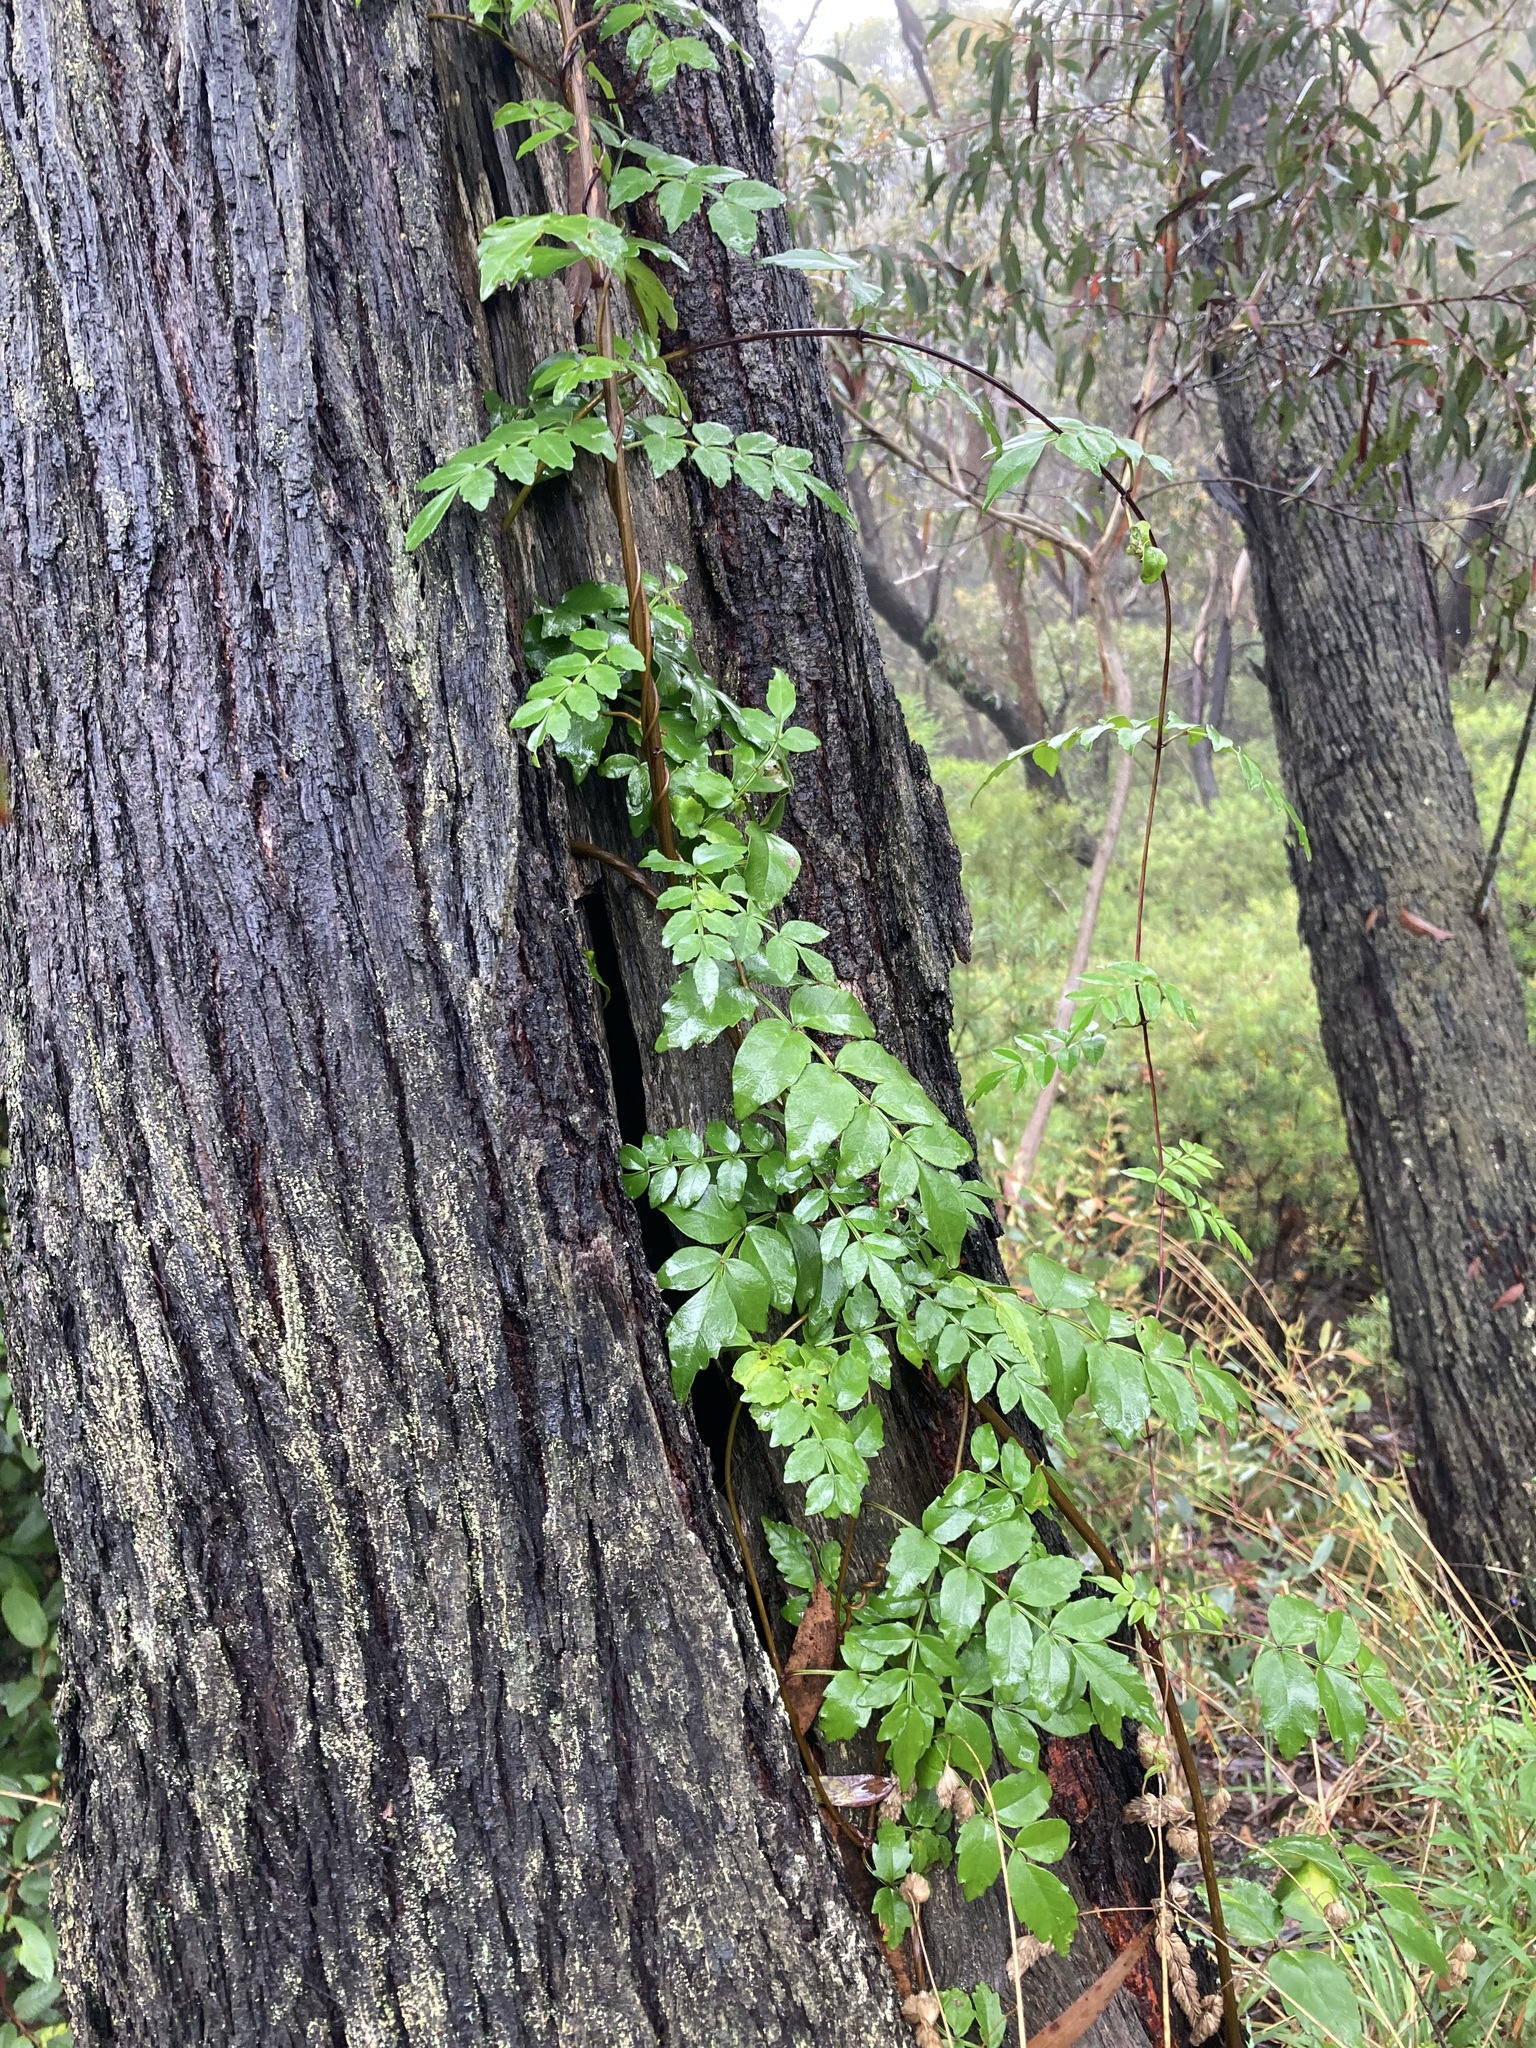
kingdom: Plantae
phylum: Tracheophyta
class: Magnoliopsida
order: Lamiales
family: Bignoniaceae
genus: Pandorea
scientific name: Pandorea pandorana
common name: Wonga-wonga-vine
